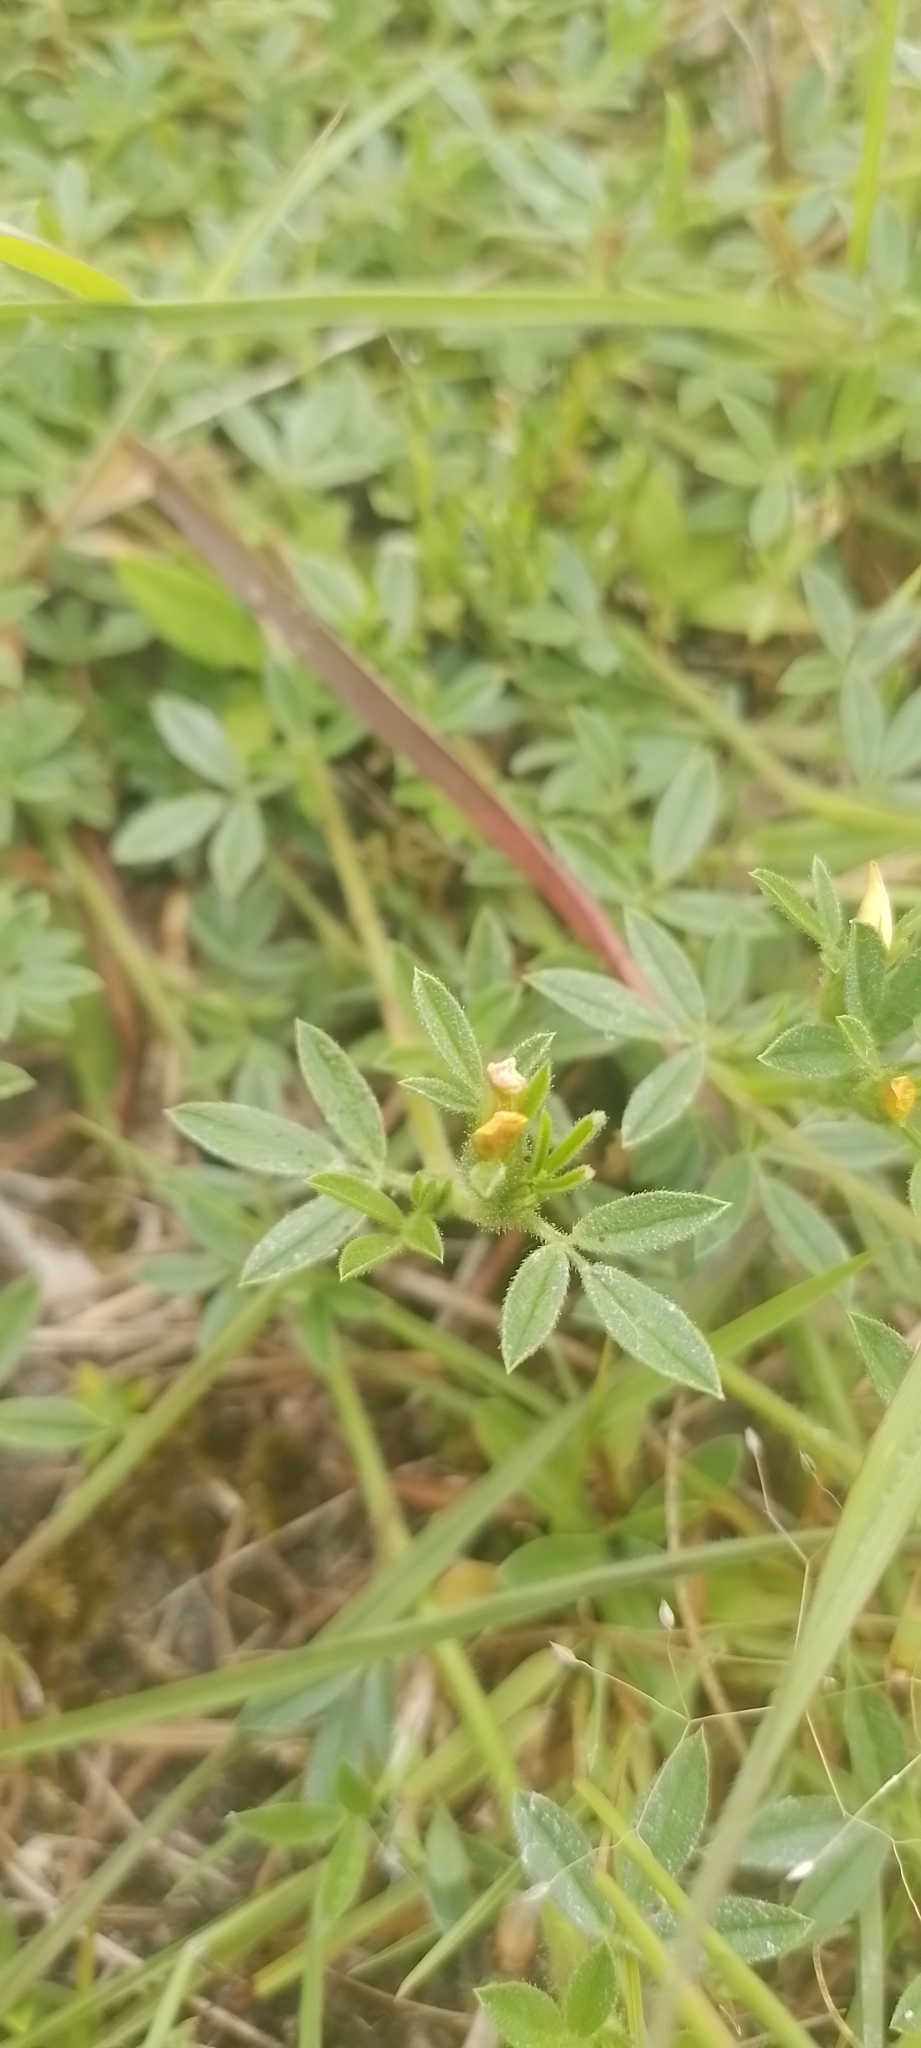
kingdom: Plantae
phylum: Tracheophyta
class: Magnoliopsida
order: Fabales
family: Fabaceae
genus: Stylosanthes
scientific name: Stylosanthes leiocarpa
